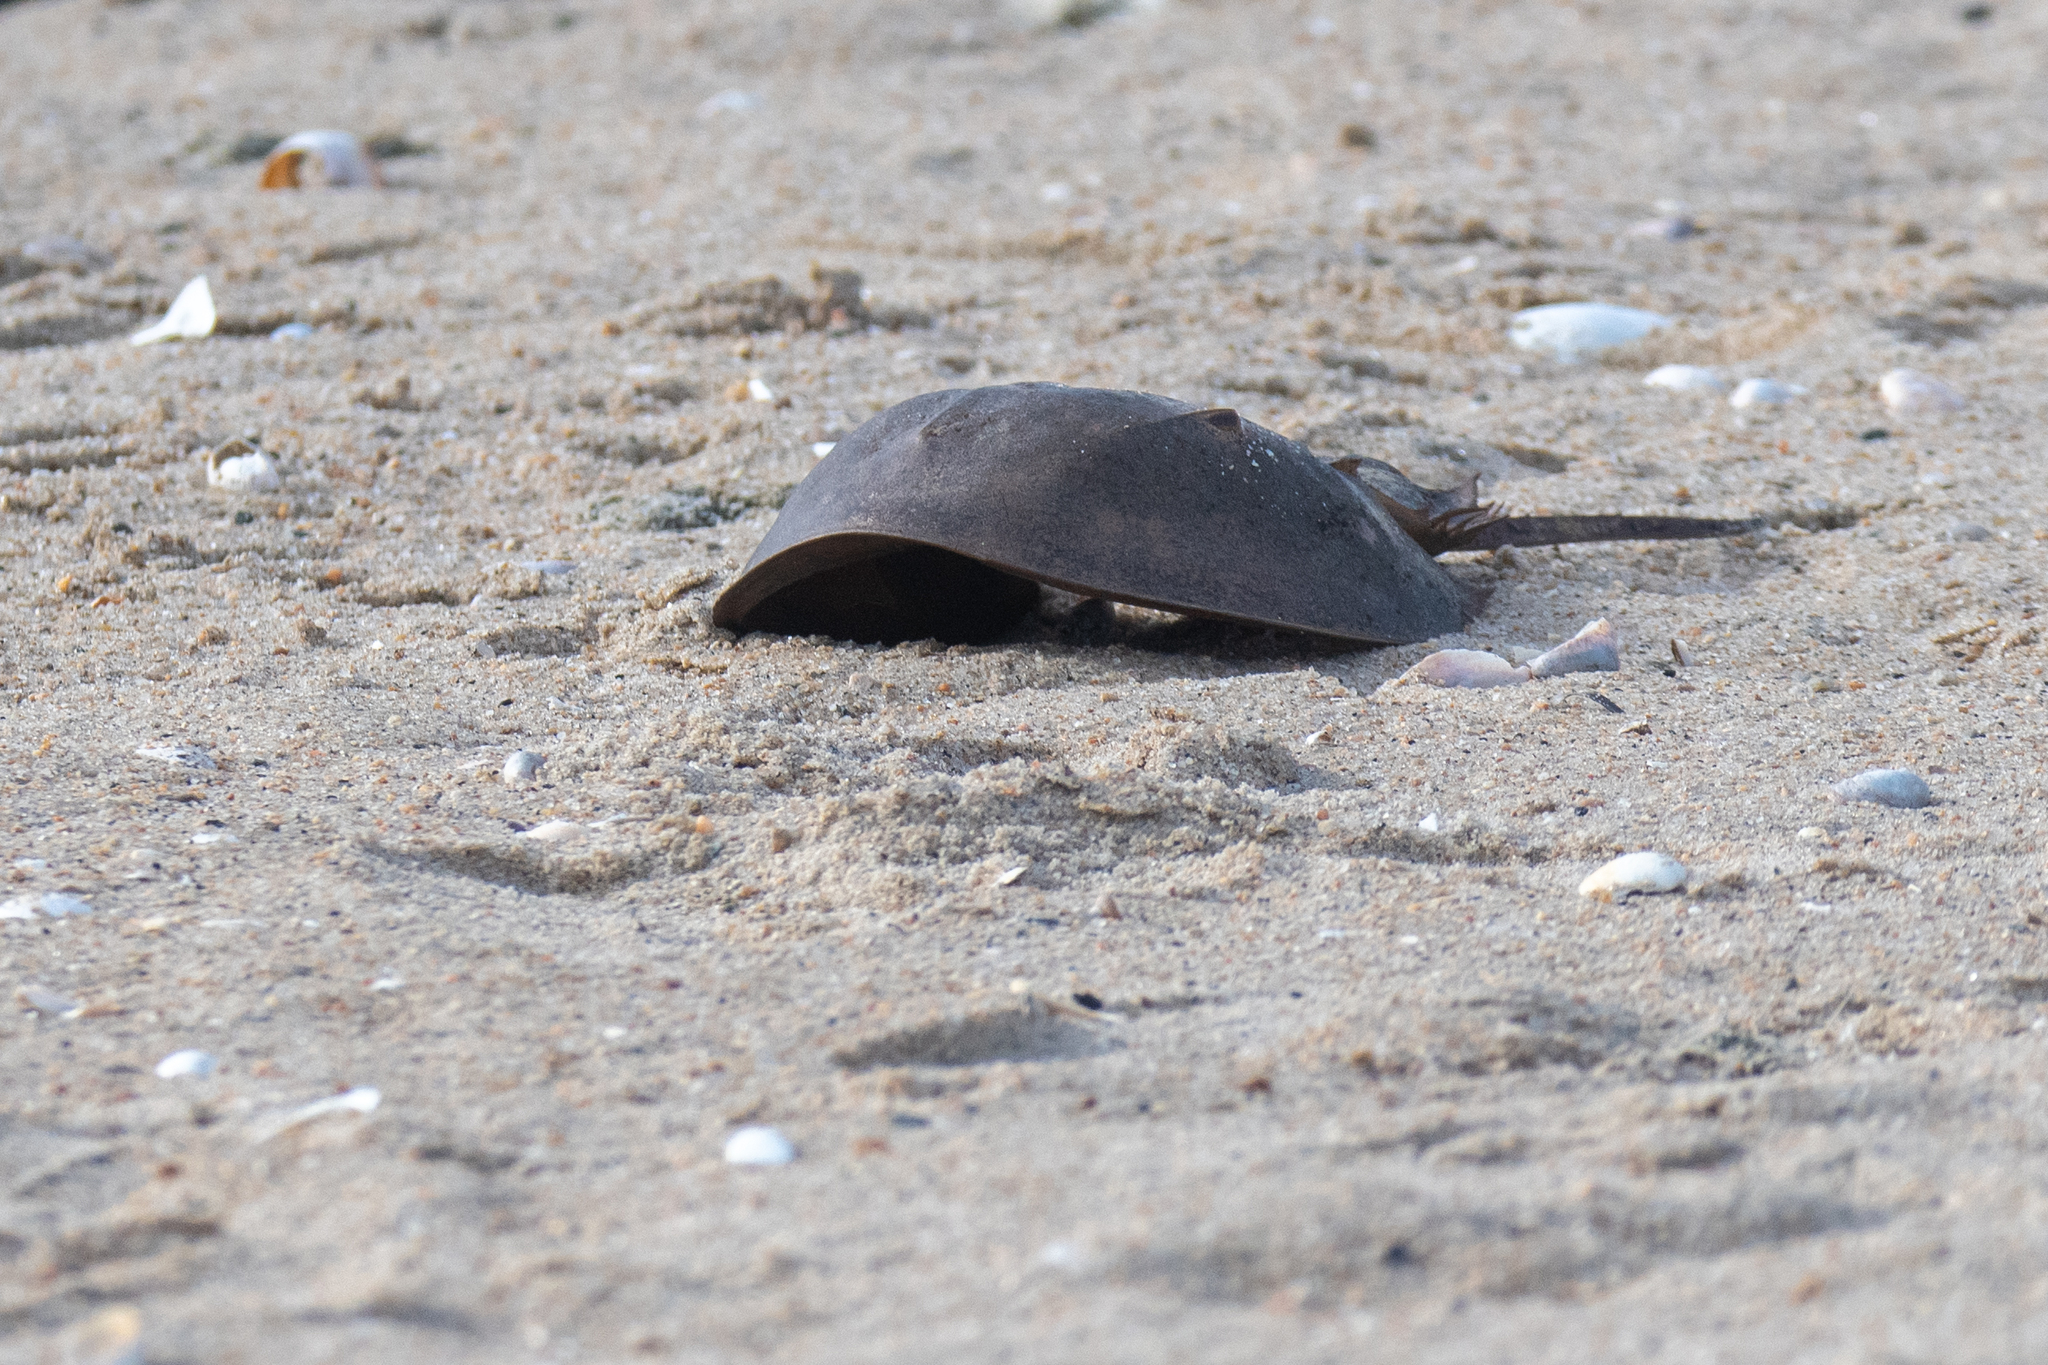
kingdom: Animalia
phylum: Arthropoda
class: Merostomata
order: Xiphosurida
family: Limulidae
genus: Limulus
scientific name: Limulus polyphemus
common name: Horseshoe crab
